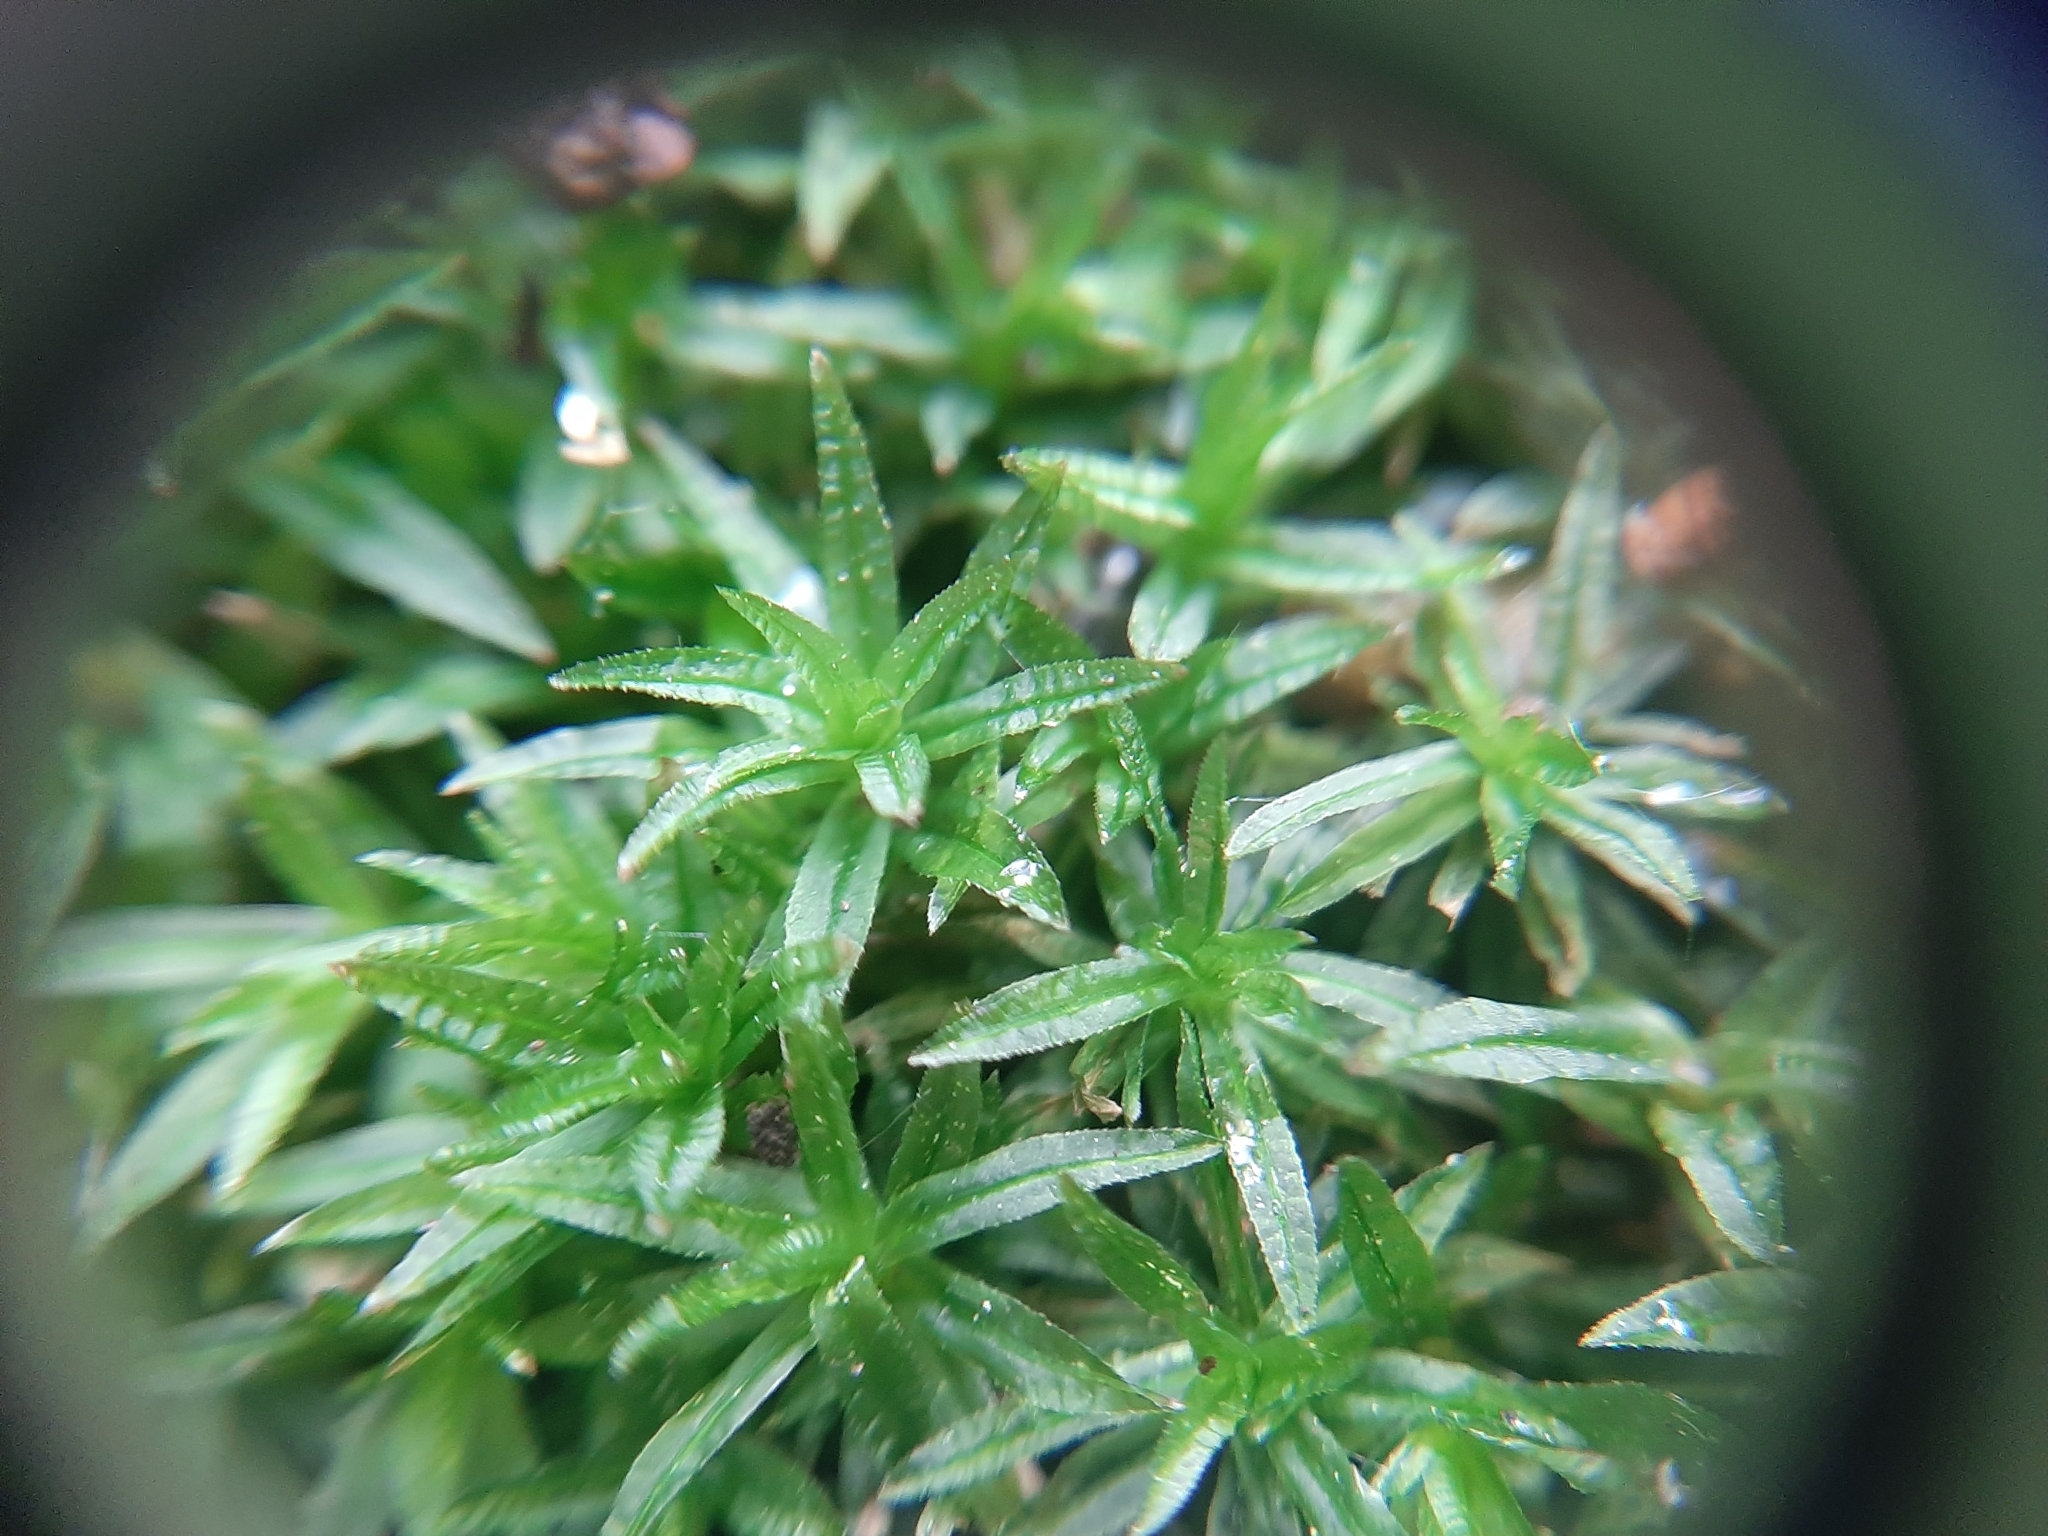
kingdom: Plantae
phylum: Bryophyta
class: Polytrichopsida
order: Polytrichales
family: Polytrichaceae
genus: Atrichum
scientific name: Atrichum undulatum
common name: Common smoothcap
